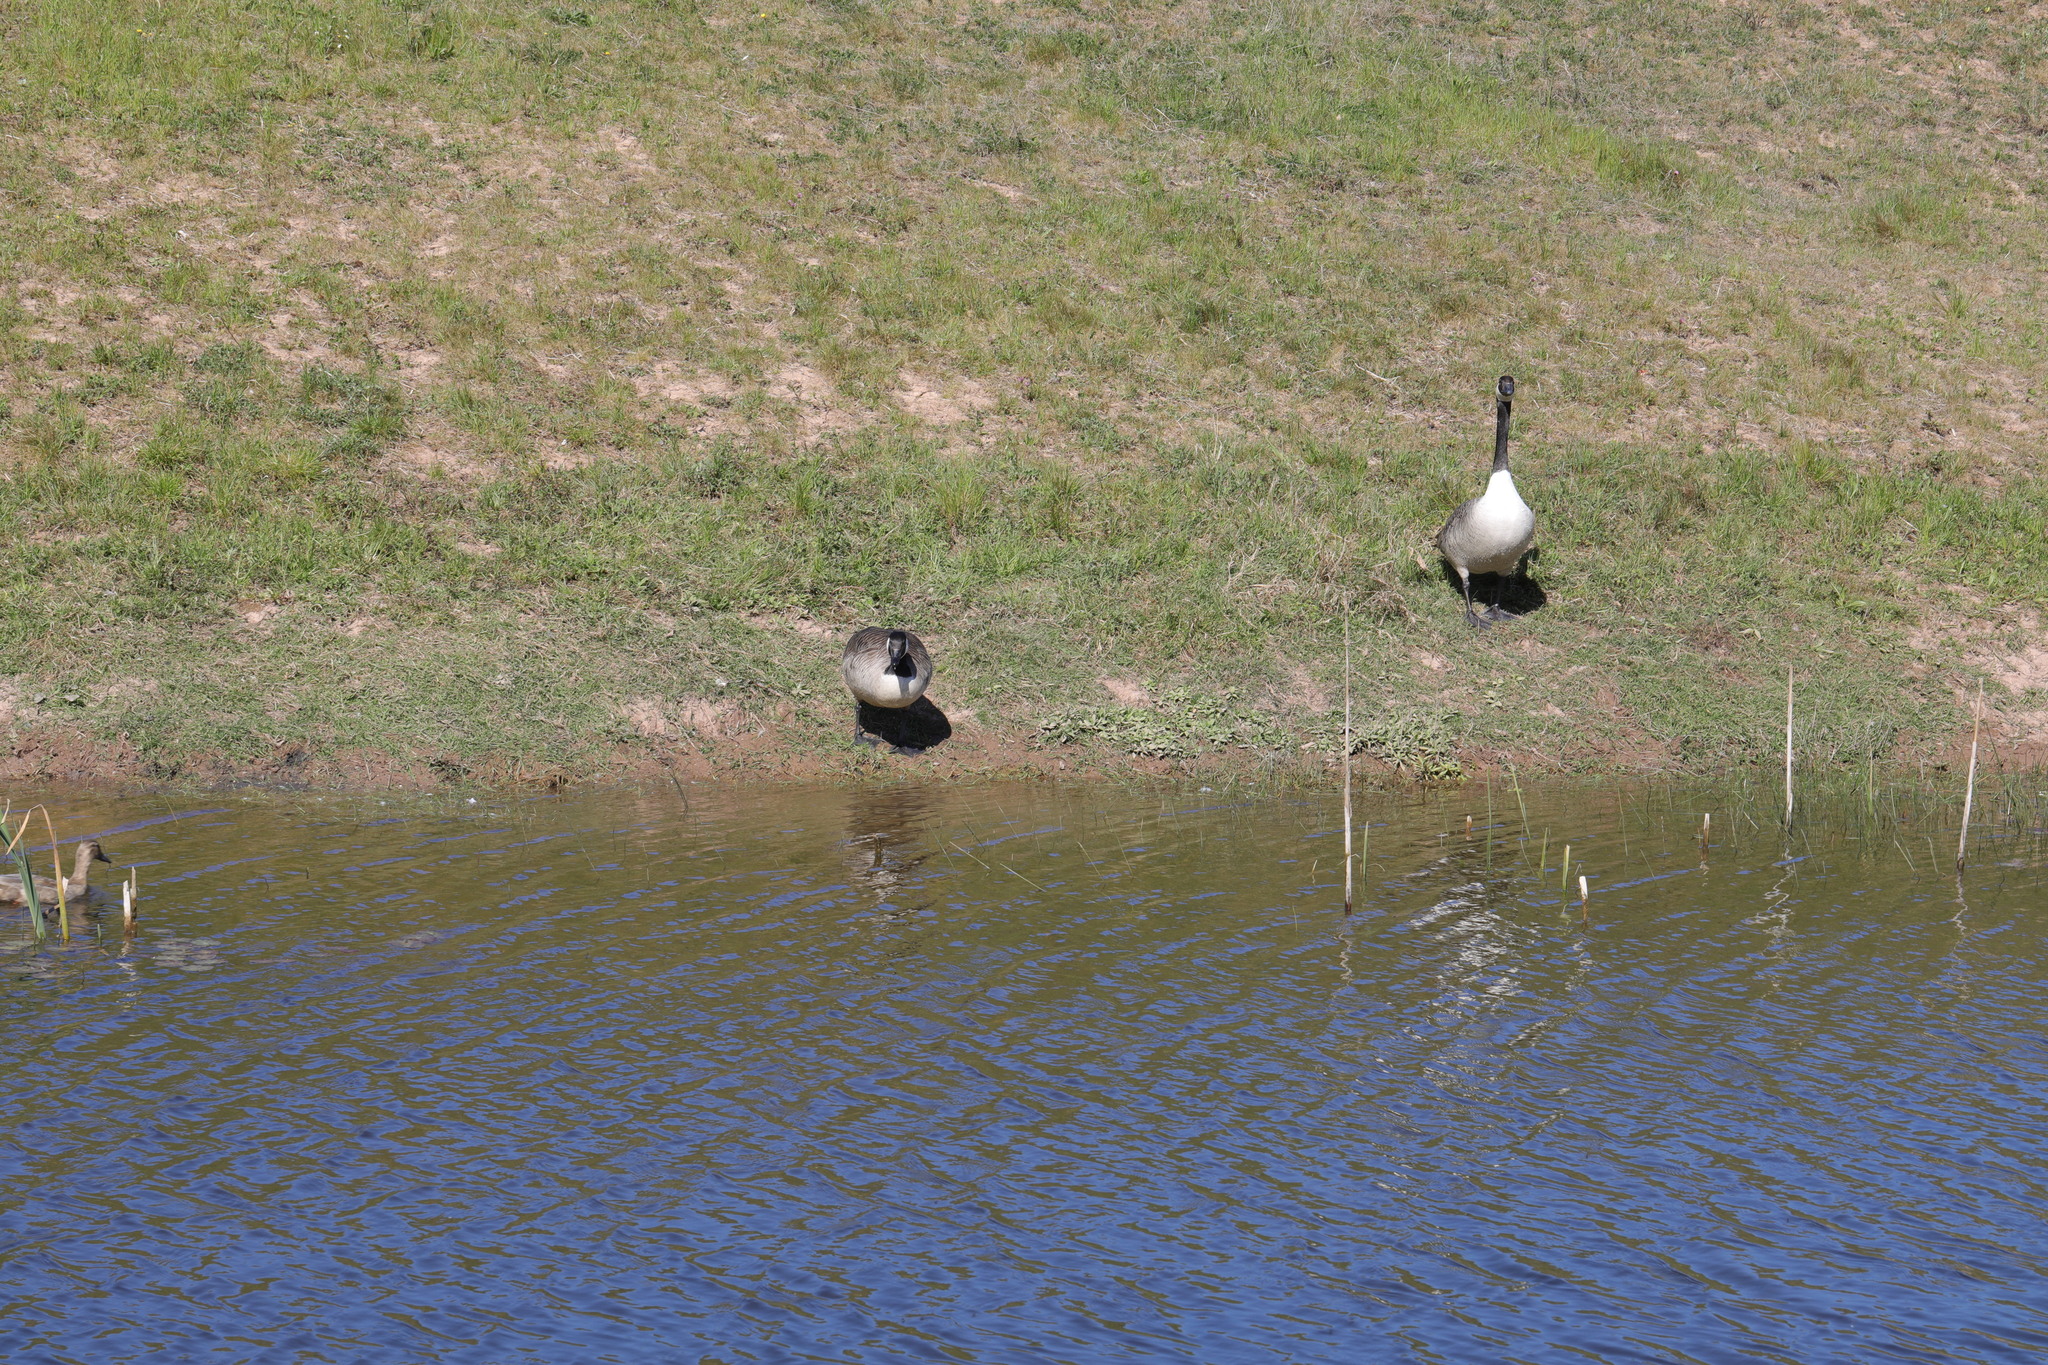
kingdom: Animalia
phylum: Chordata
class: Aves
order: Anseriformes
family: Anatidae
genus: Branta
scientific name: Branta canadensis
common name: Canada goose
